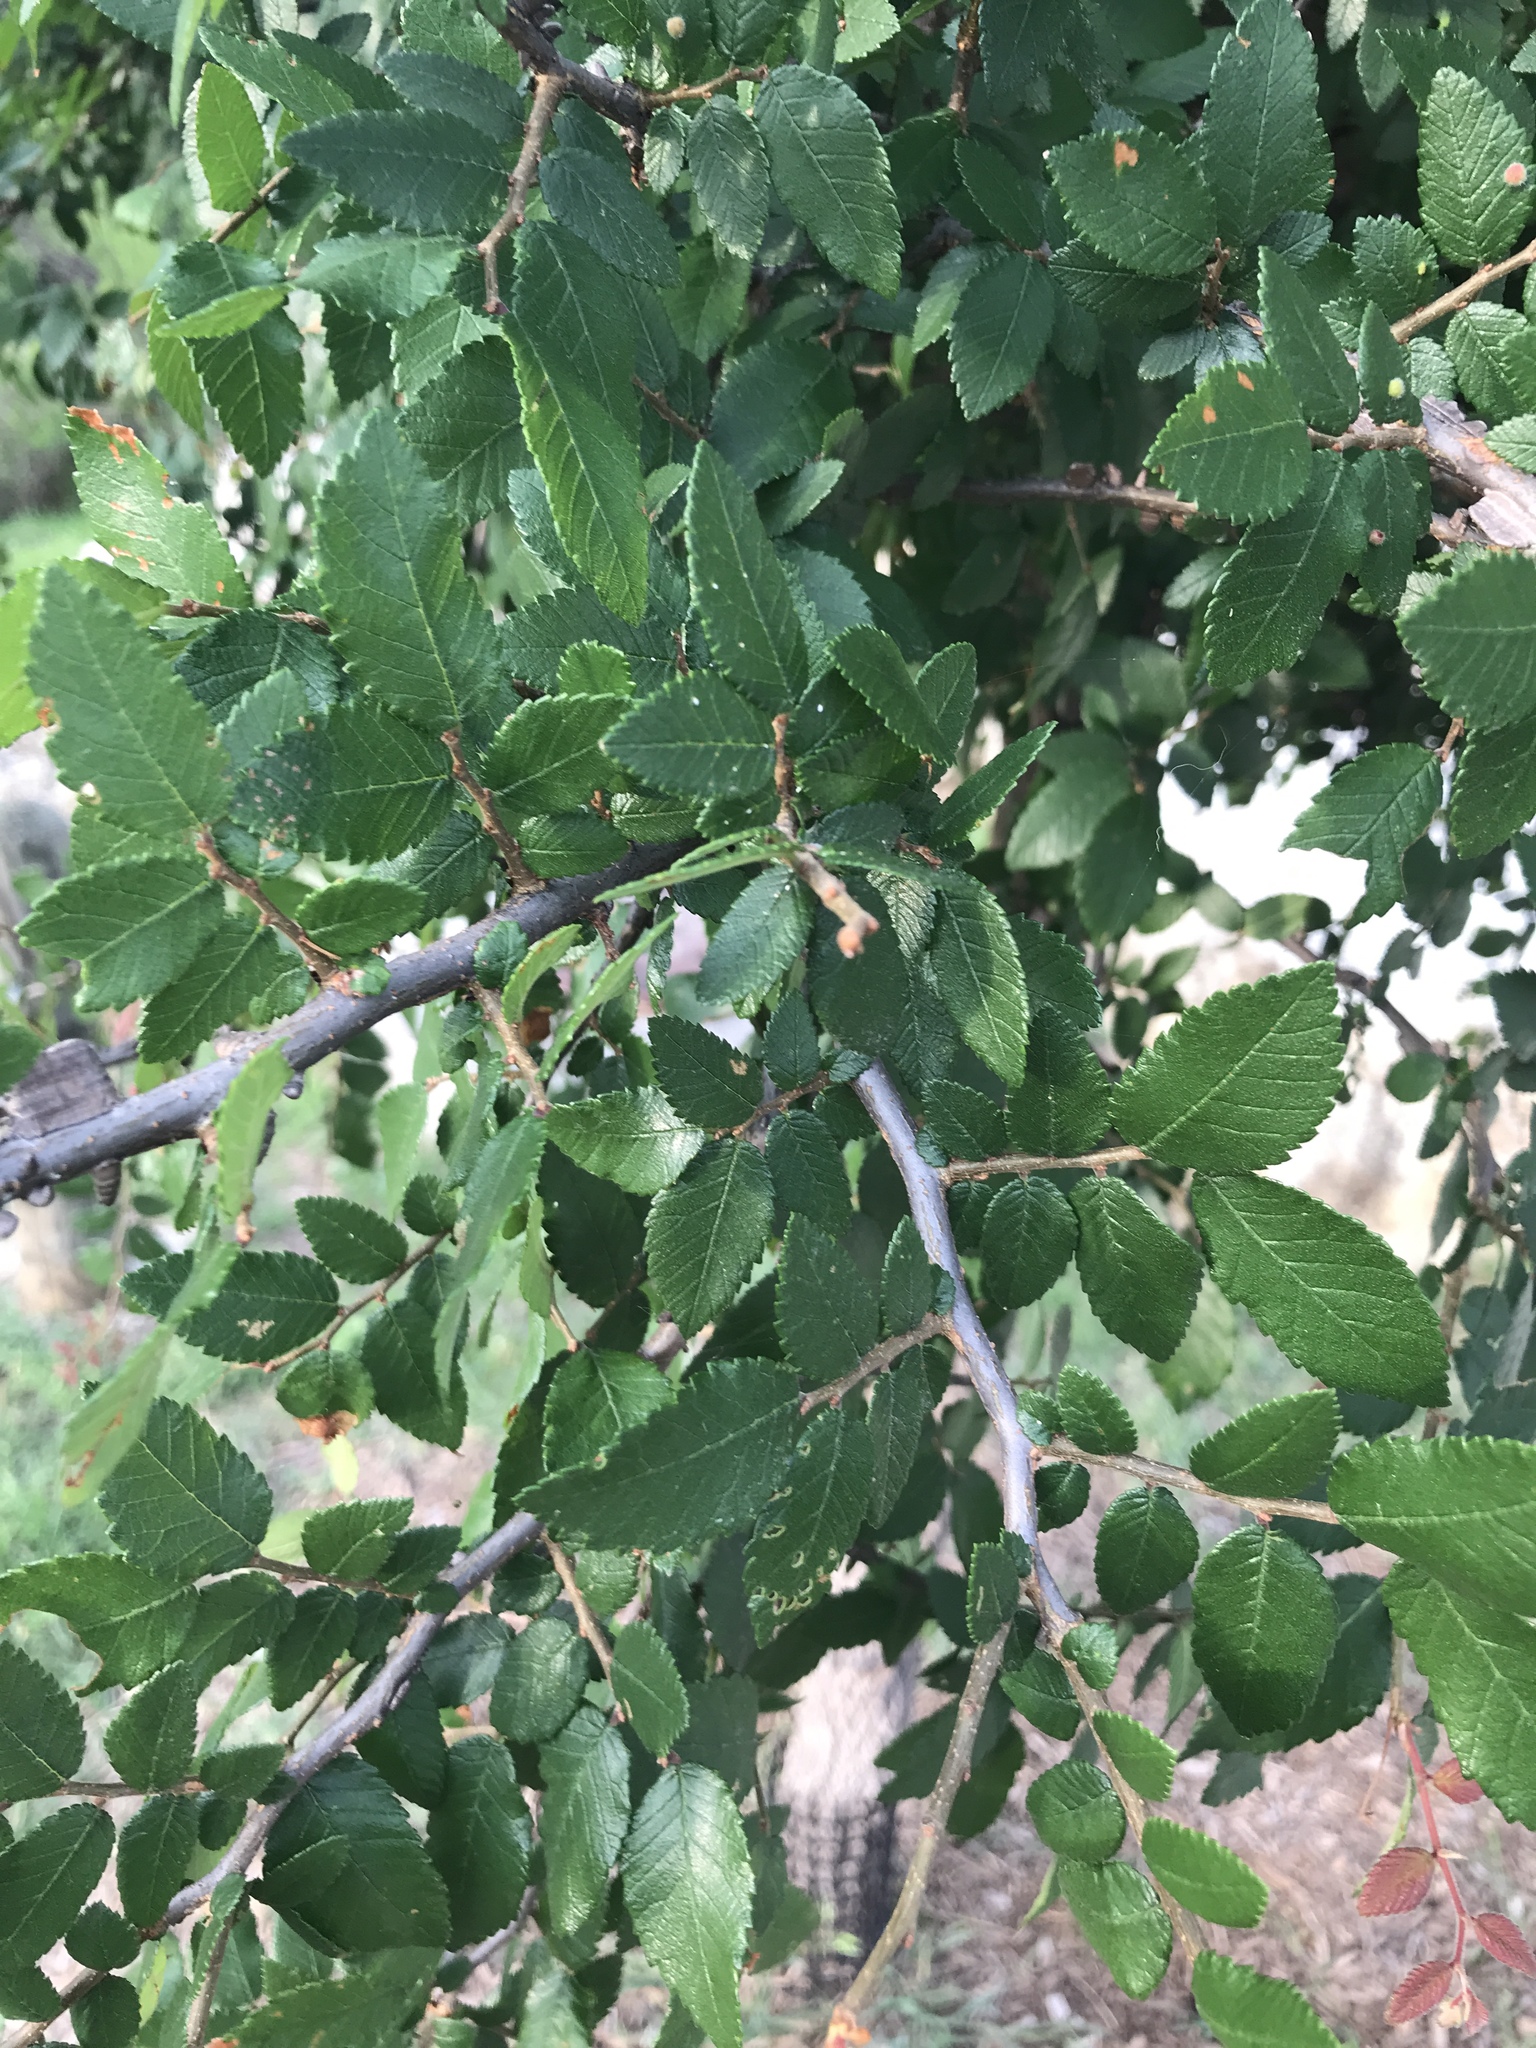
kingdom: Plantae
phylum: Tracheophyta
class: Magnoliopsida
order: Rosales
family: Ulmaceae
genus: Ulmus
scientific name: Ulmus crassifolia
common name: Basket elm
